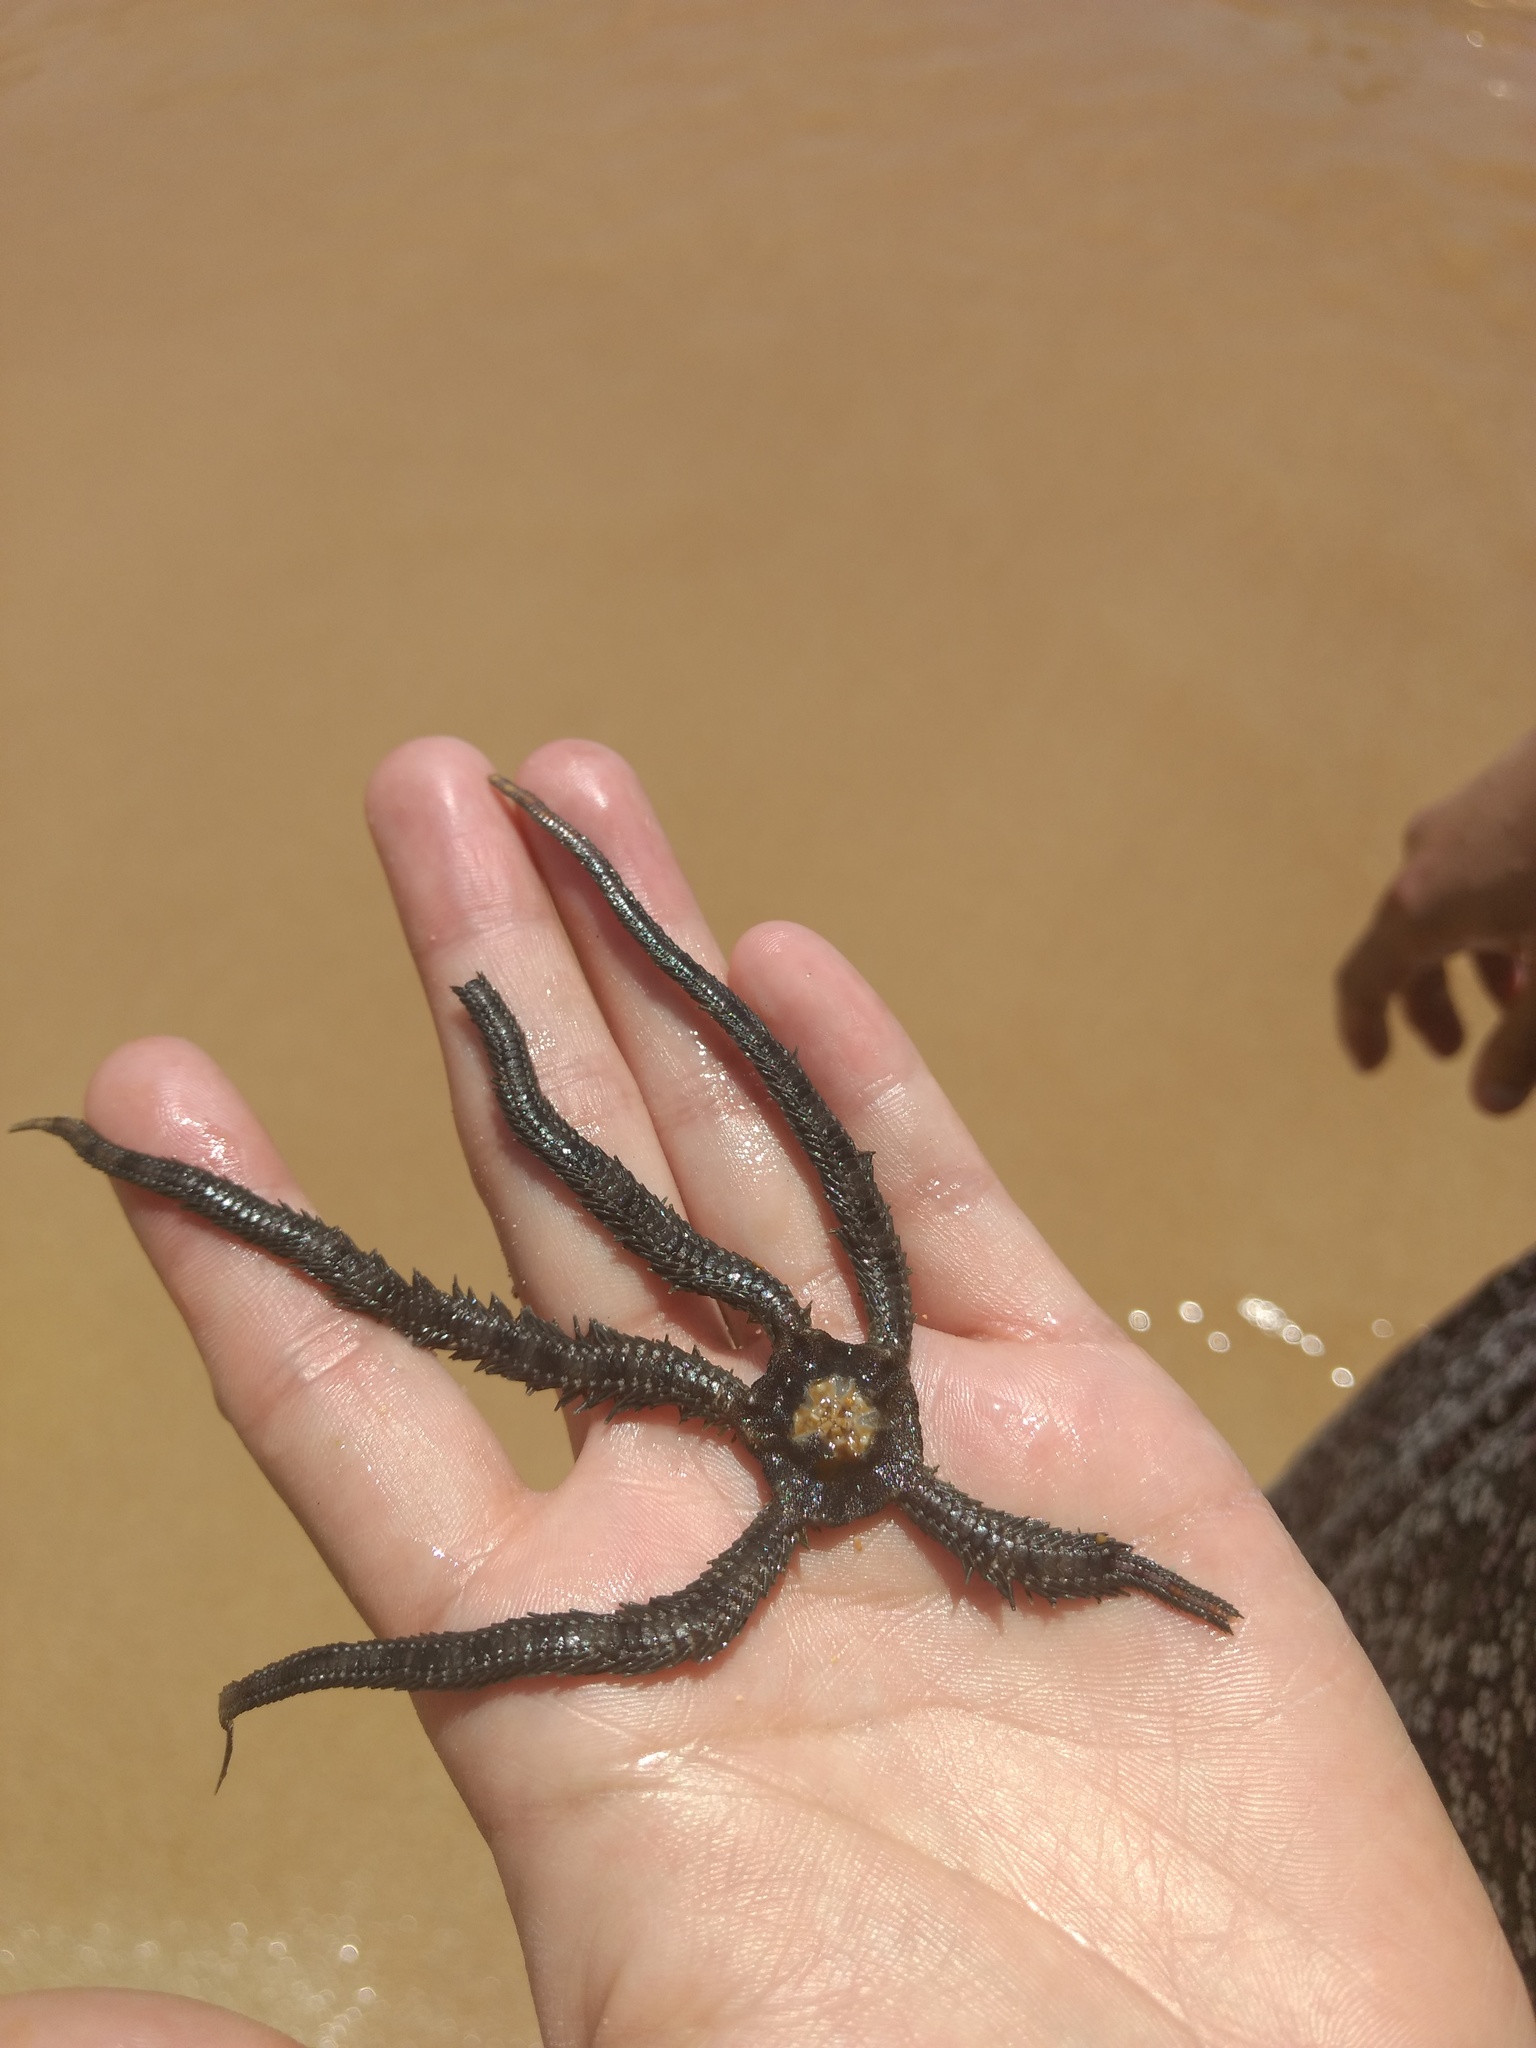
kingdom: Animalia
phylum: Echinodermata
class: Ophiuroidea
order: Ophiacanthida
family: Ophiocomidae
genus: Ophiocomella
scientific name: Ophiocomella alexandri
